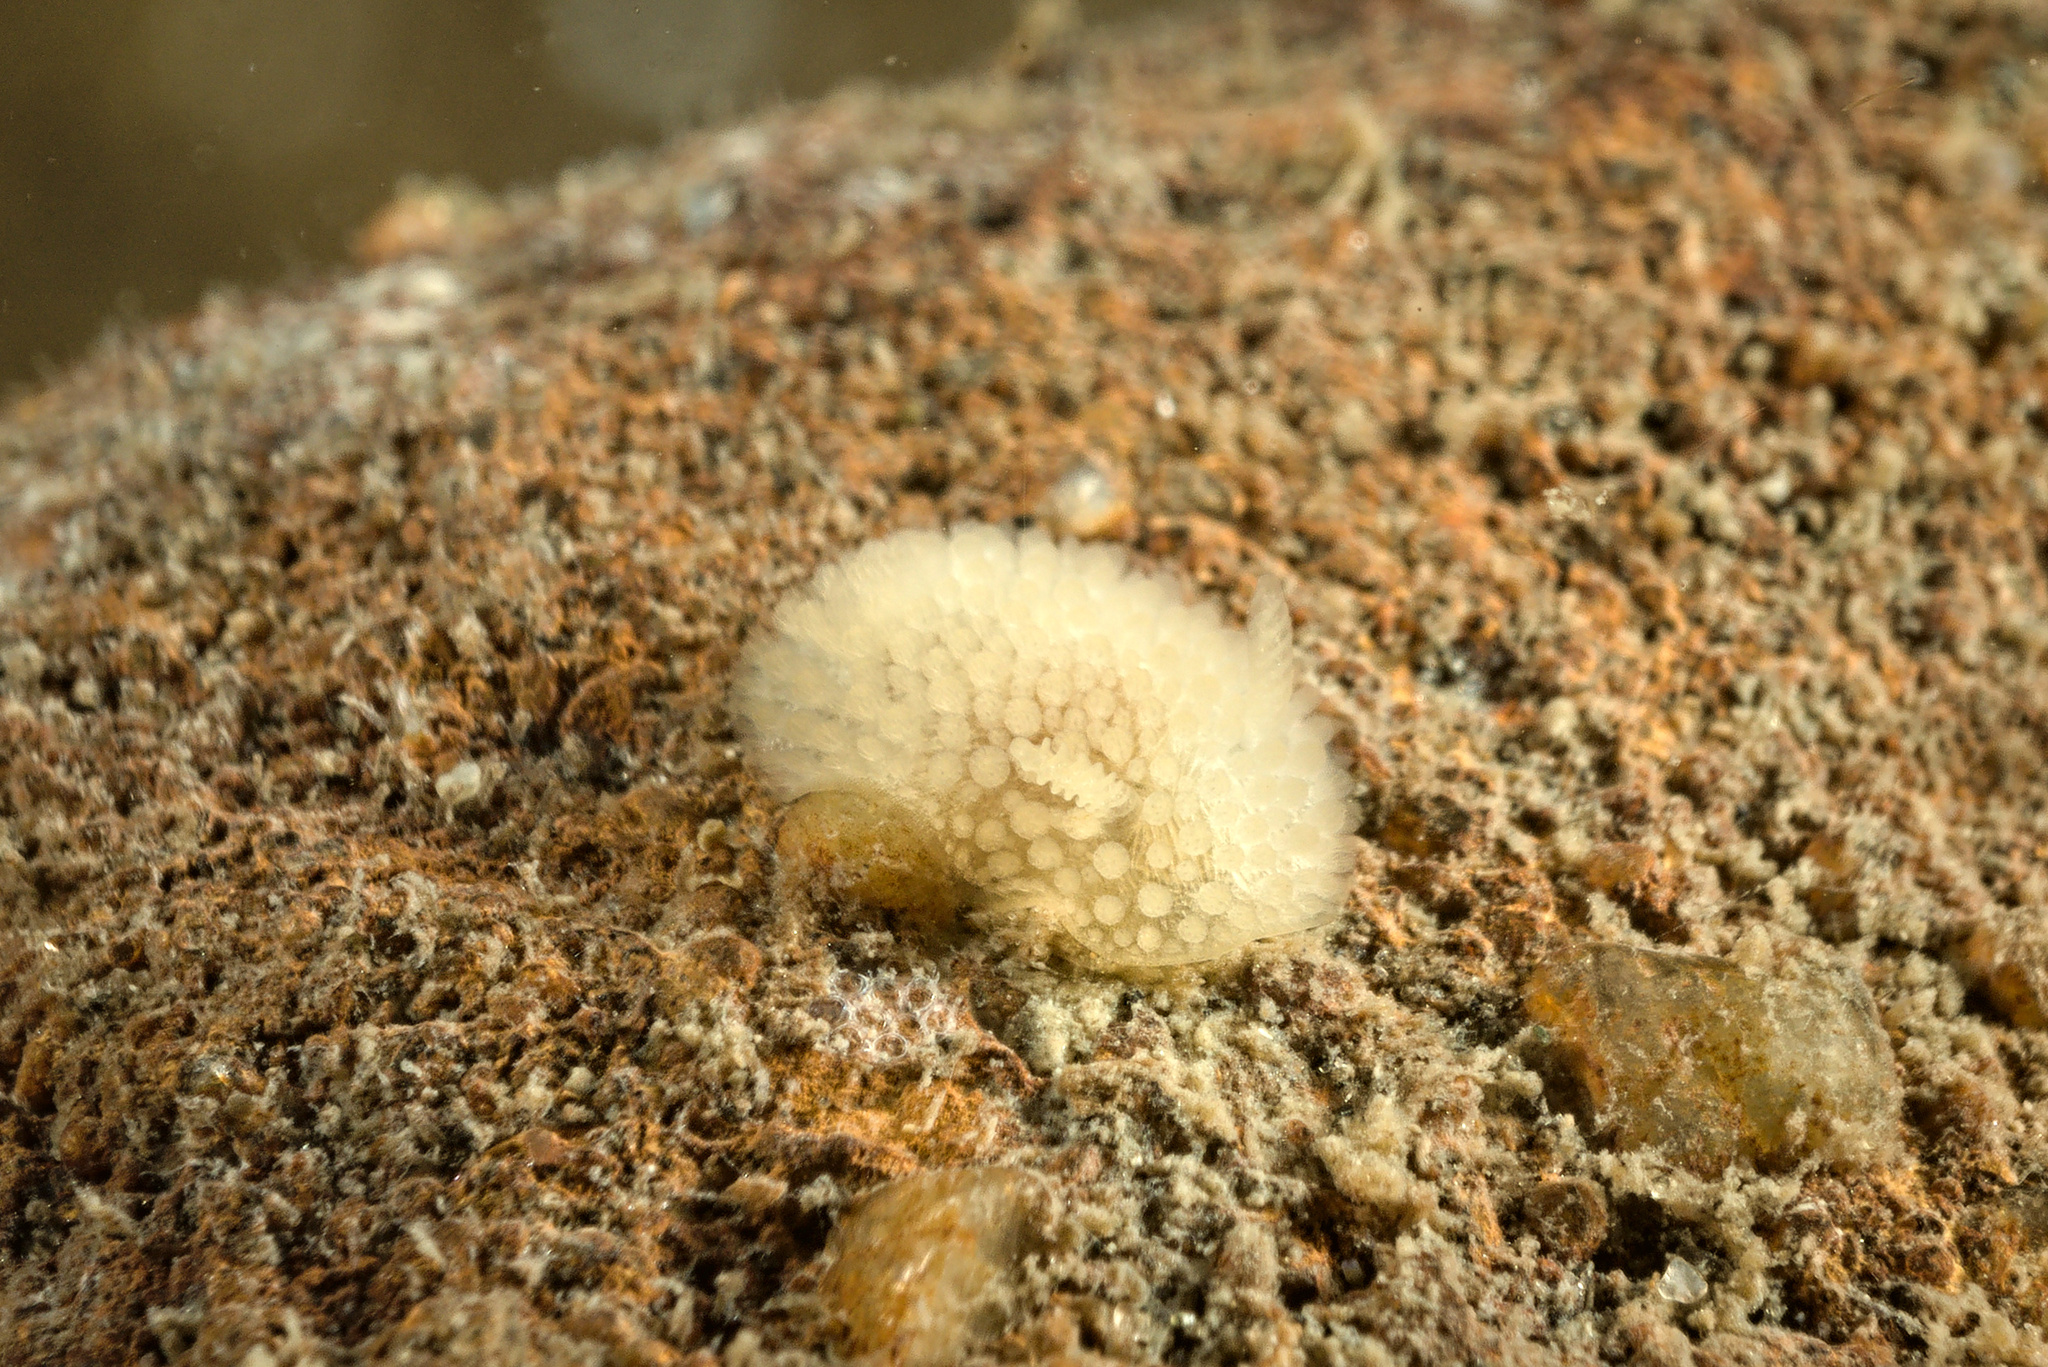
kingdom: Animalia
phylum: Mollusca
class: Gastropoda
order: Nudibranchia
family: Onchidorididae
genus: Onchidoris
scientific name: Onchidoris muricata
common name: Rough doris
